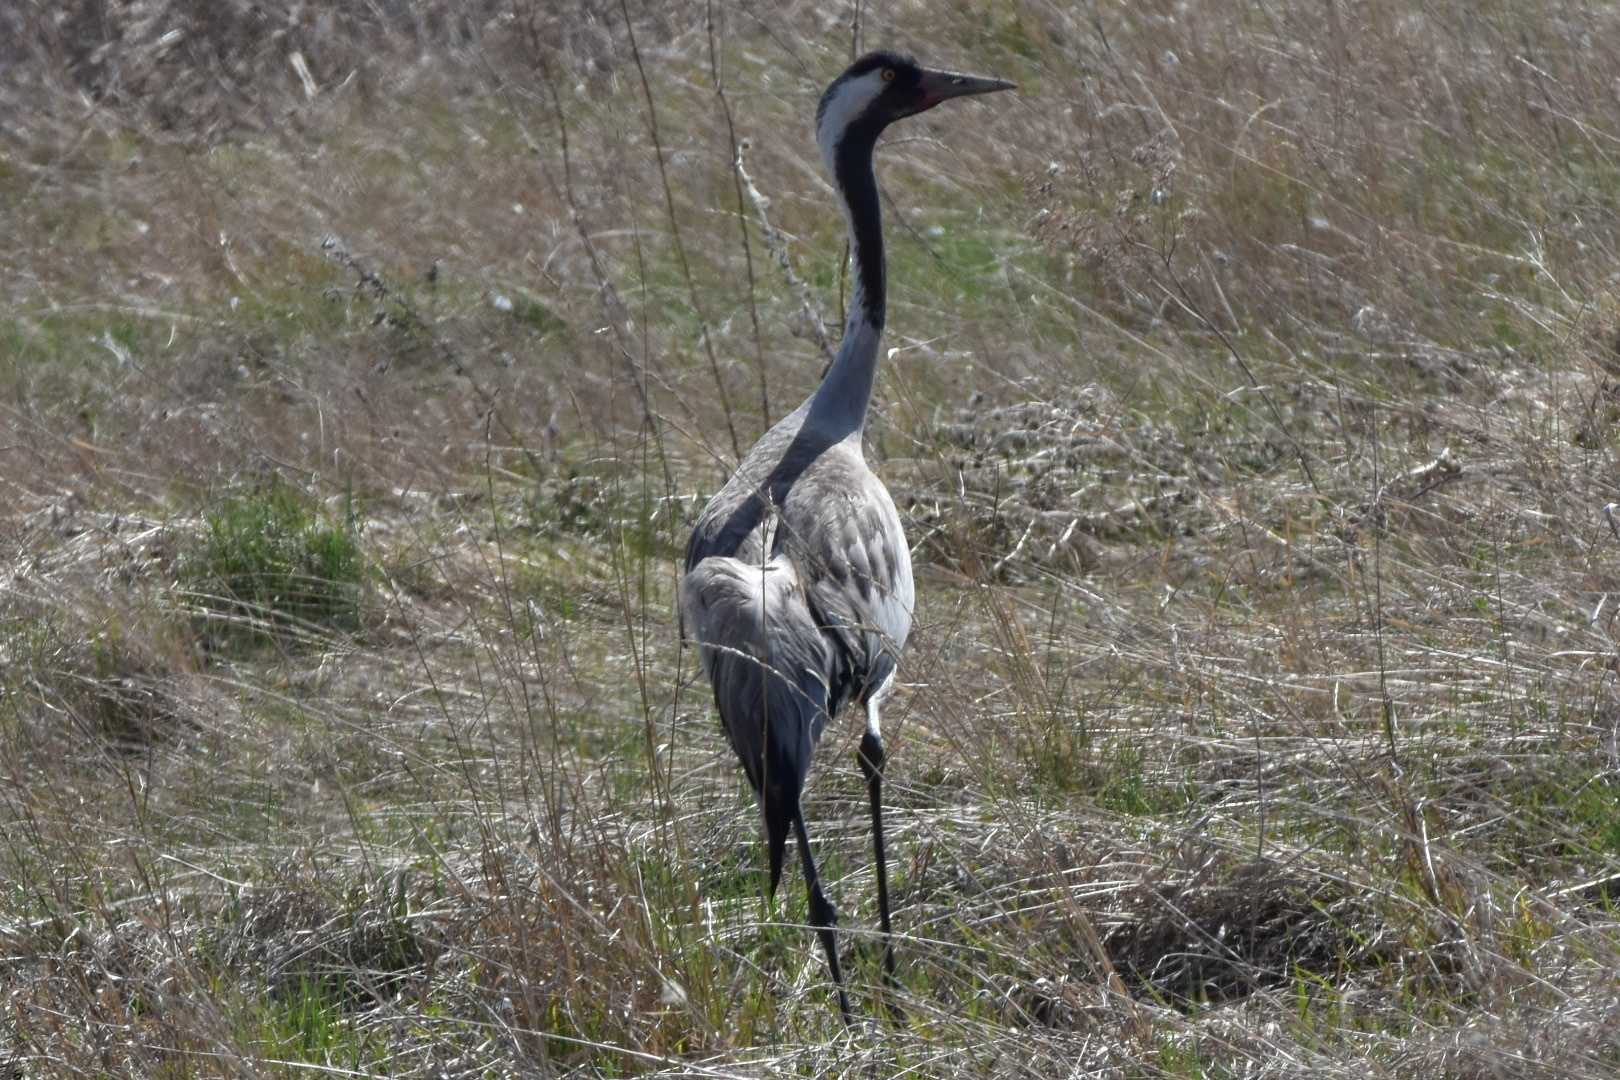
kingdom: Animalia
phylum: Chordata
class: Aves
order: Gruiformes
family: Gruidae
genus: Grus
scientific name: Grus grus
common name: Common crane
